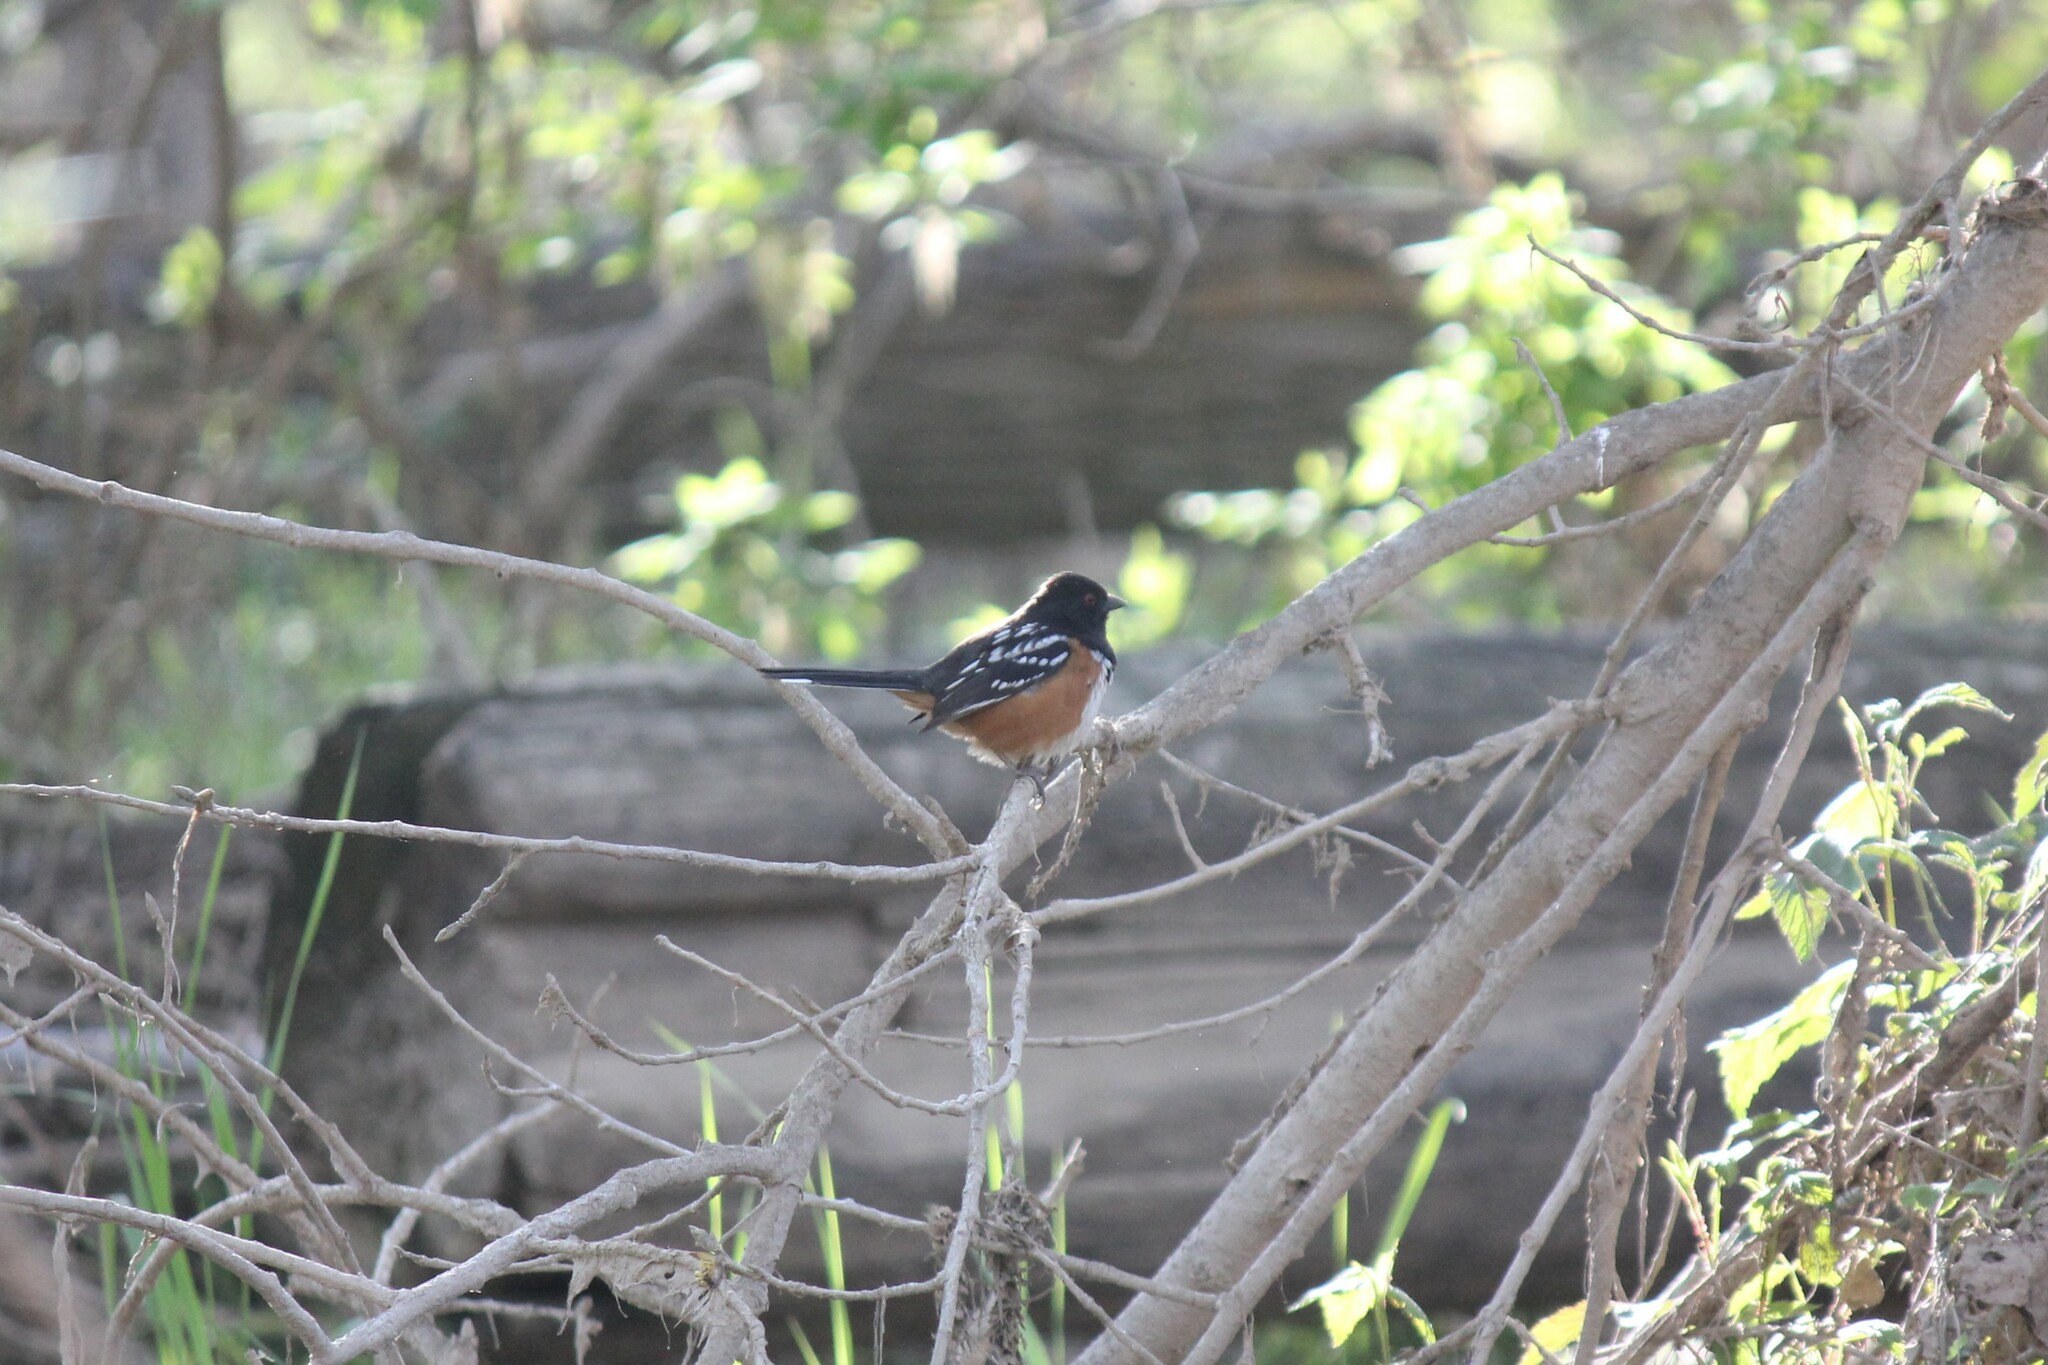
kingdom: Animalia
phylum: Chordata
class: Aves
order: Passeriformes
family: Passerellidae
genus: Pipilo
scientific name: Pipilo maculatus
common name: Spotted towhee
